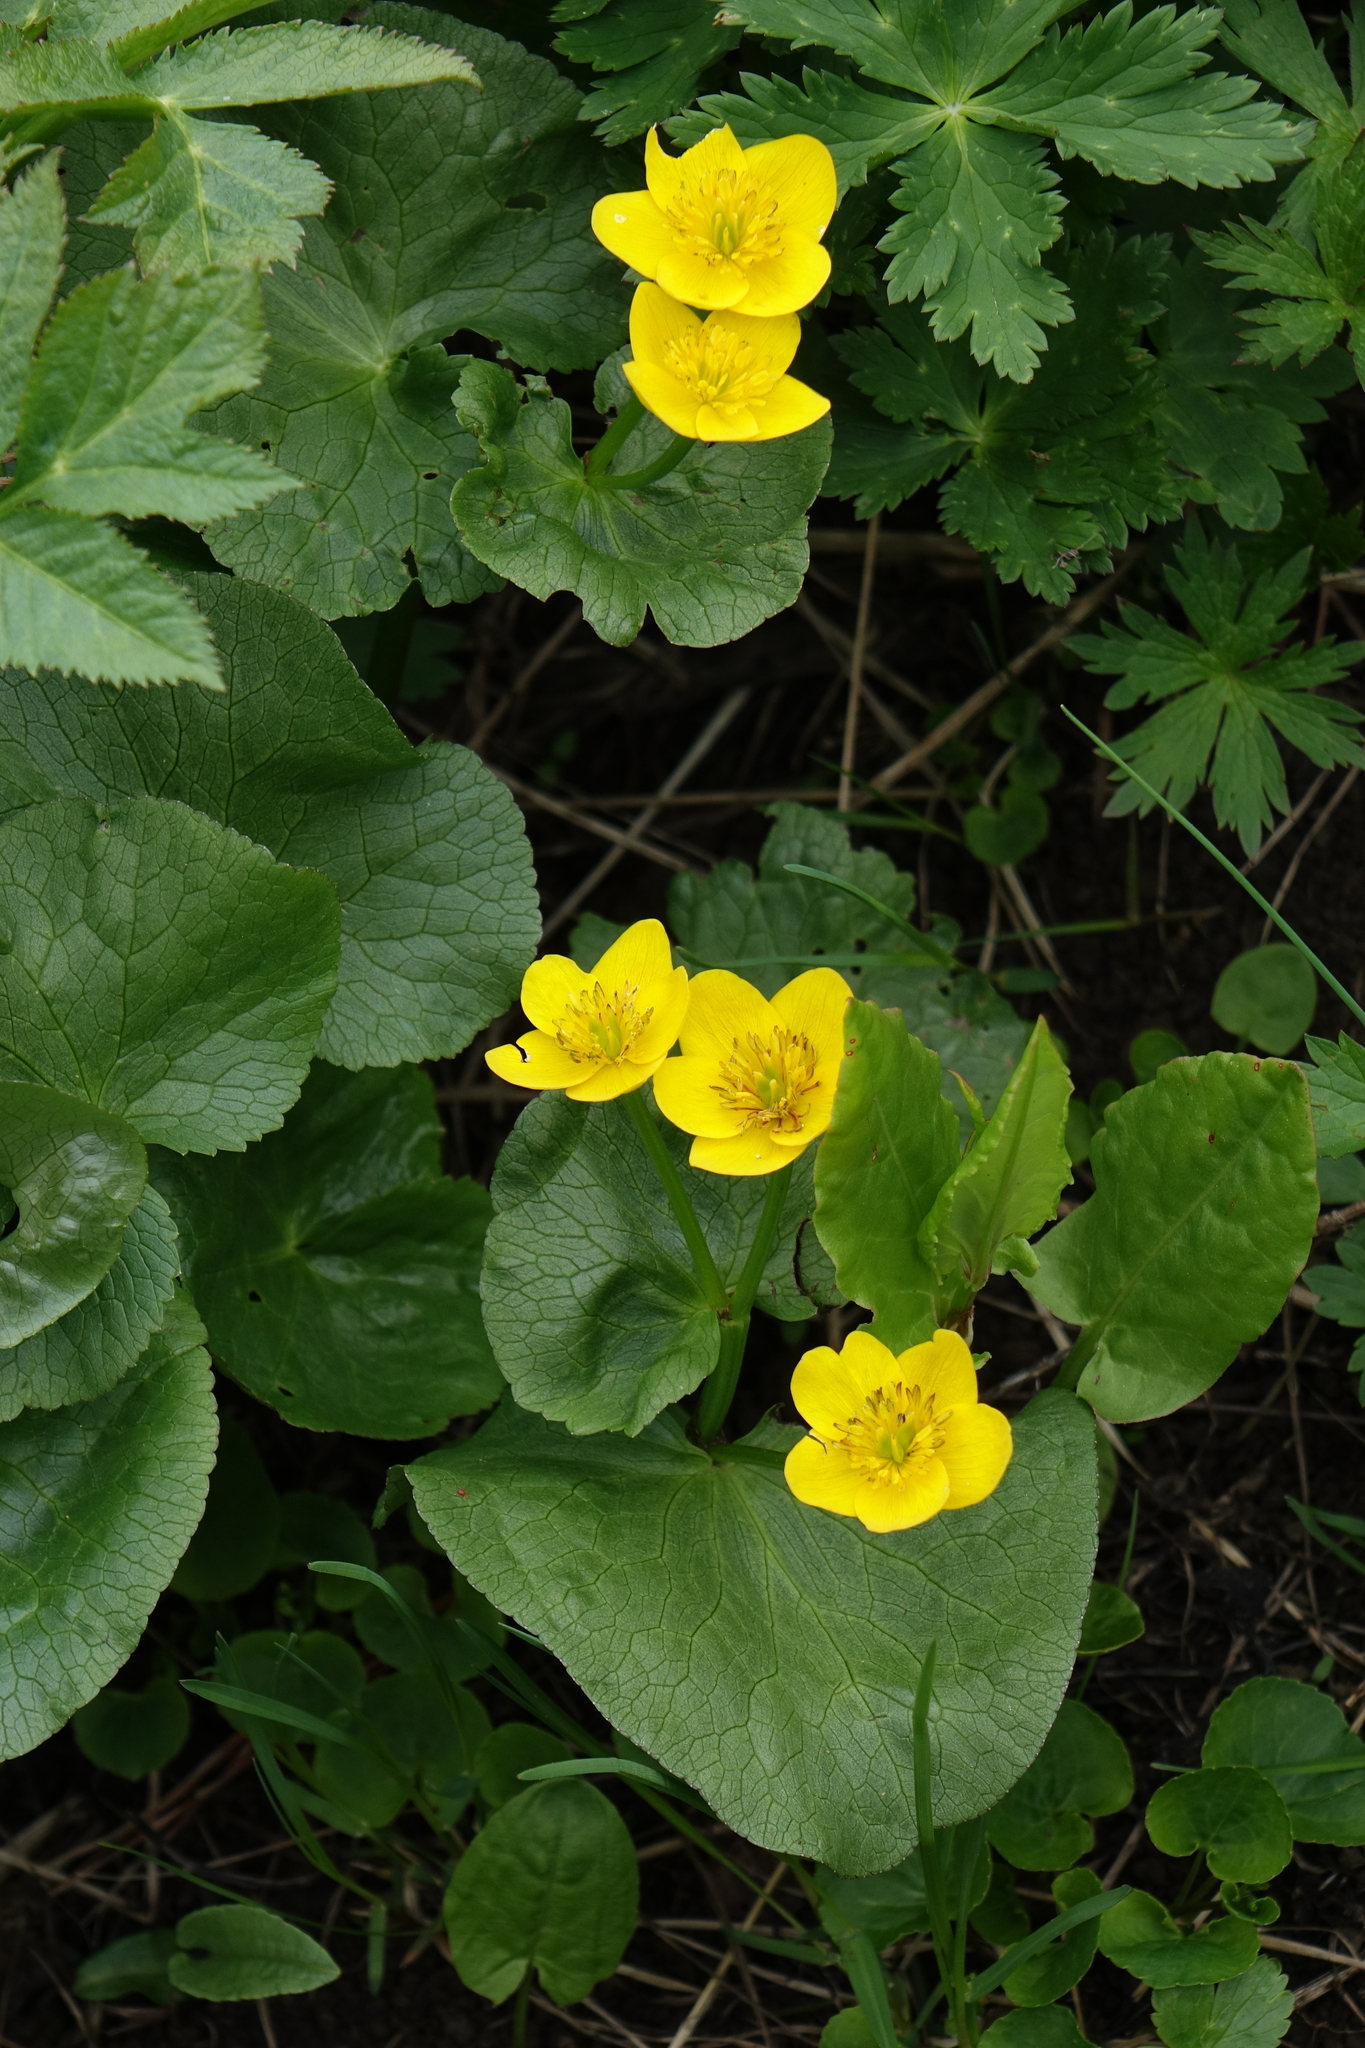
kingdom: Plantae
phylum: Tracheophyta
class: Magnoliopsida
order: Ranunculales
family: Ranunculaceae
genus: Caltha
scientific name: Caltha palustris
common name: Marsh marigold
